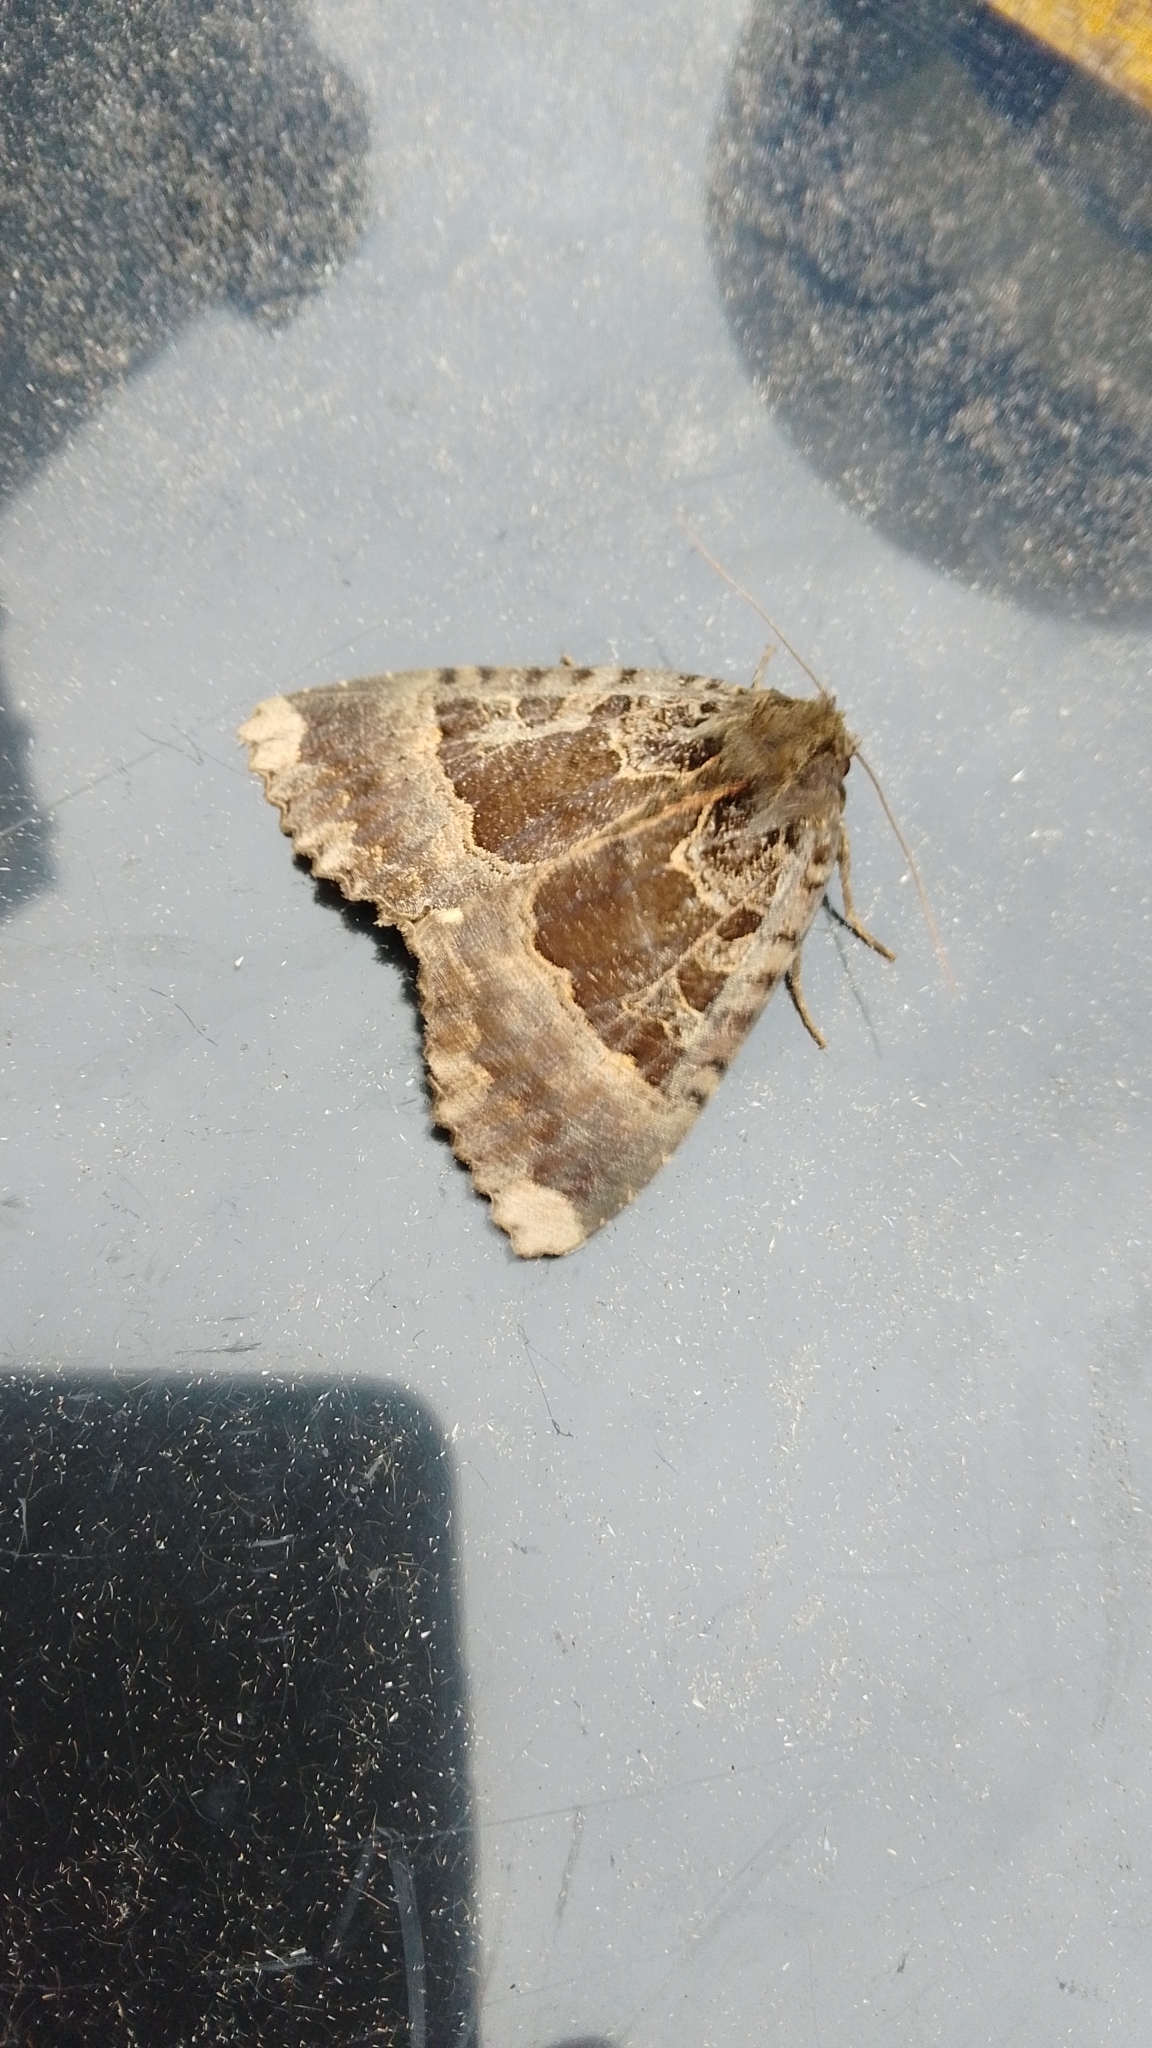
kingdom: Animalia
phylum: Arthropoda
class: Insecta
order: Lepidoptera
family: Noctuidae
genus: Mormo
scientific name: Mormo maura
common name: Old lady
